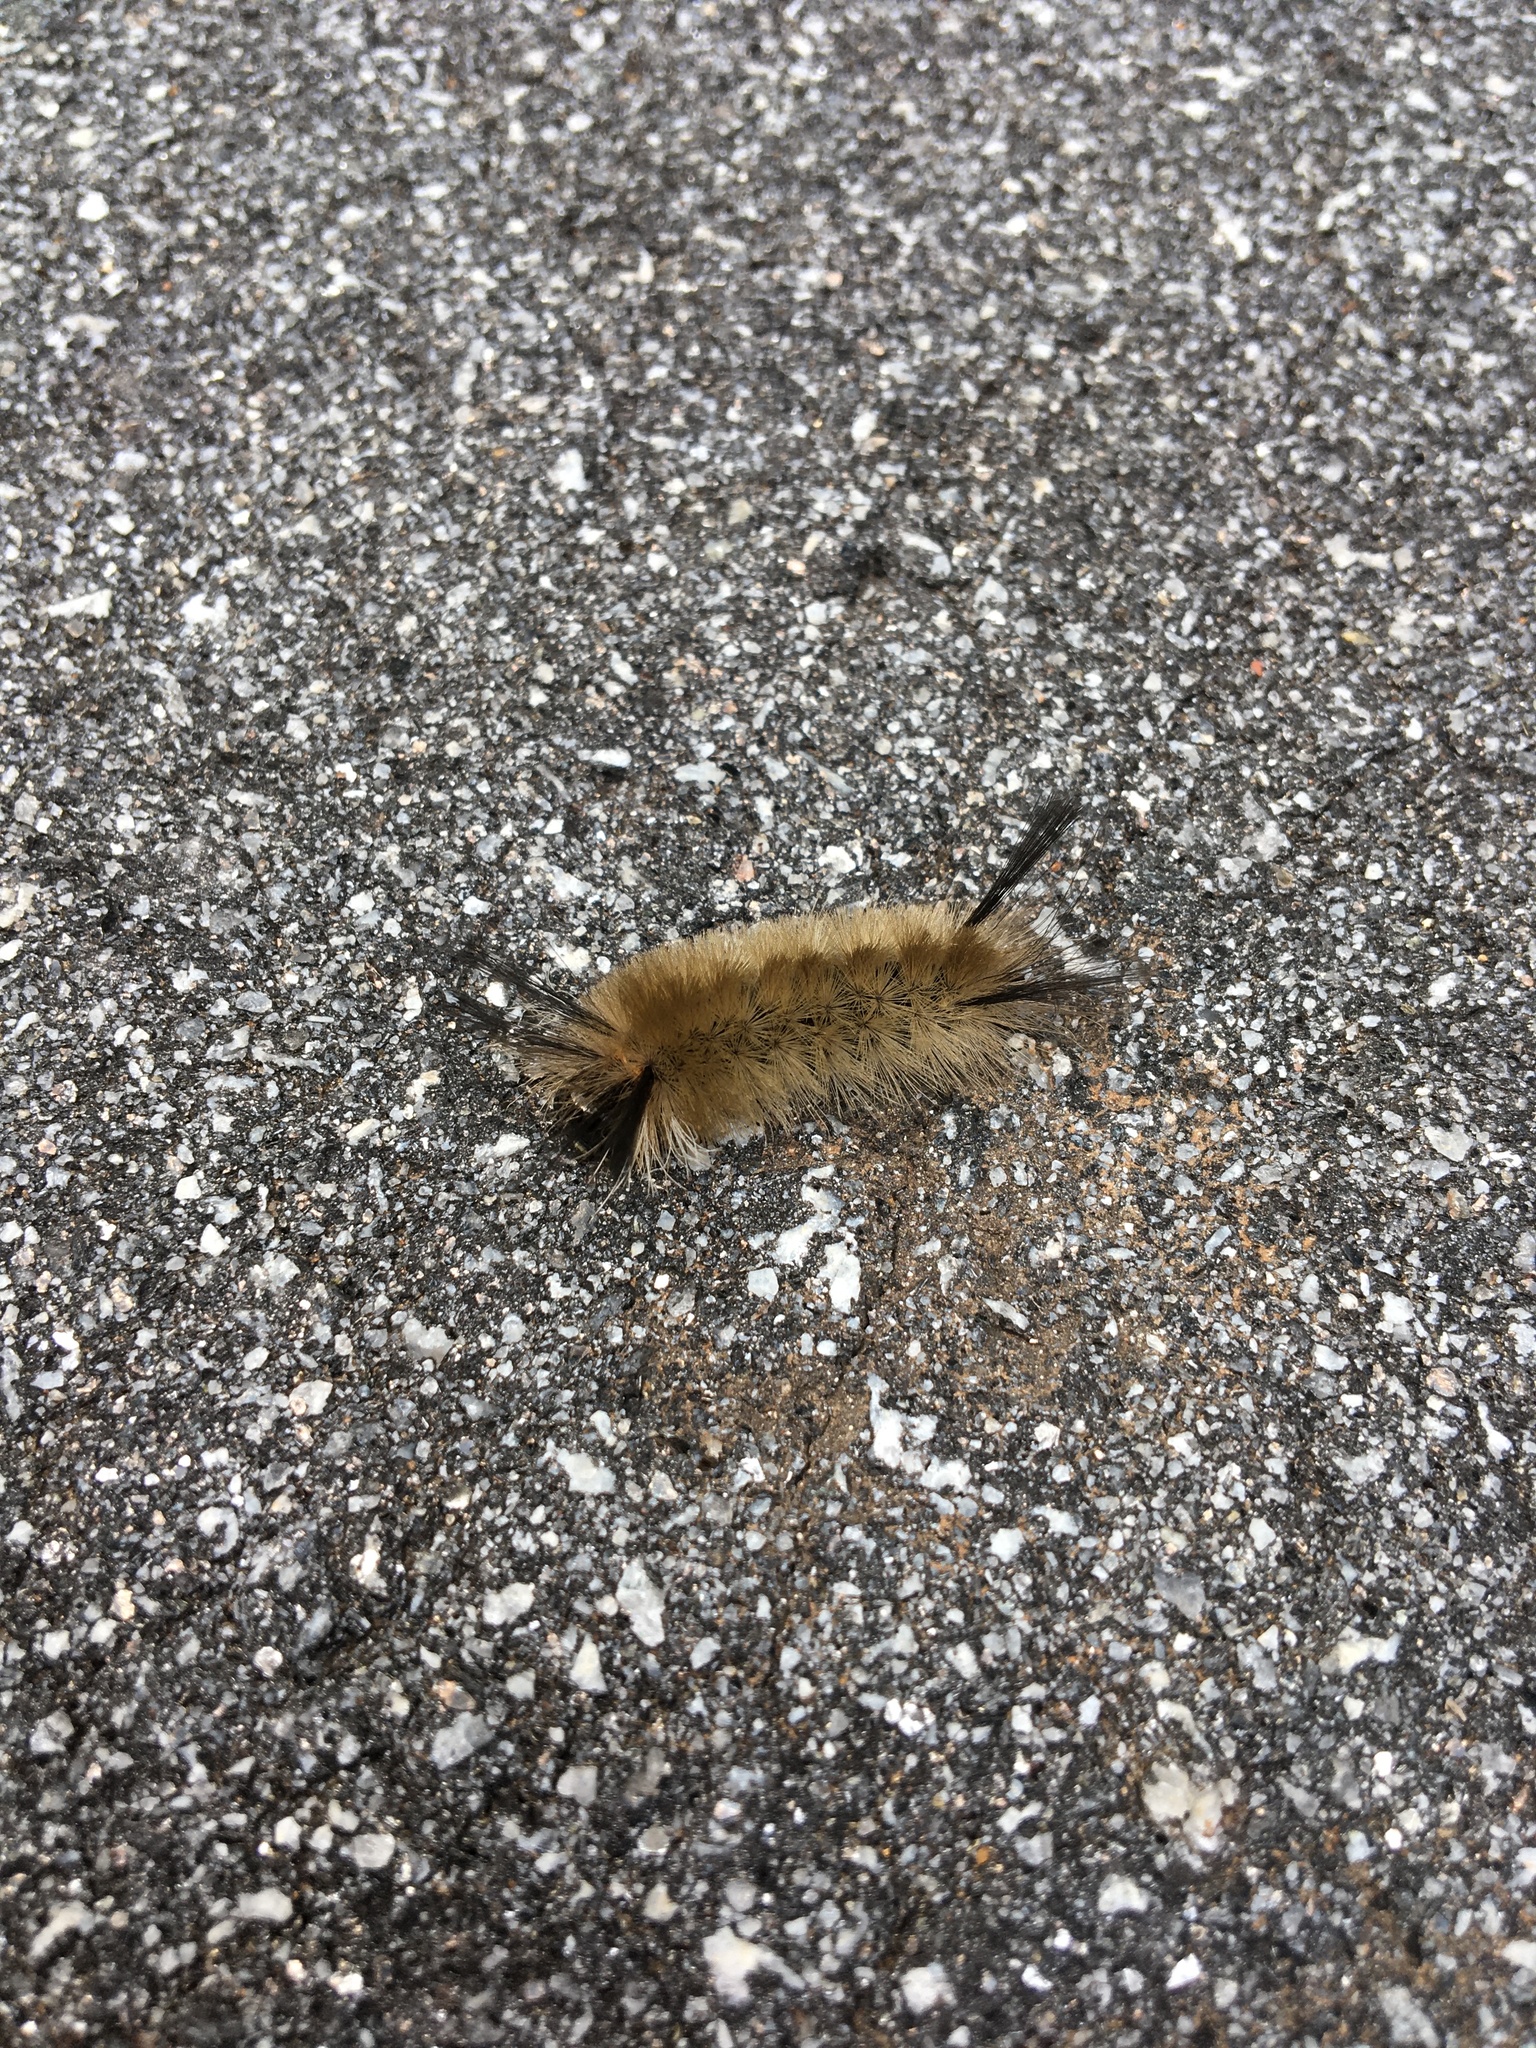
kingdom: Animalia
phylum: Arthropoda
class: Insecta
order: Lepidoptera
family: Erebidae
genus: Halysidota
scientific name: Halysidota tessellaris
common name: Banded tussock moth
